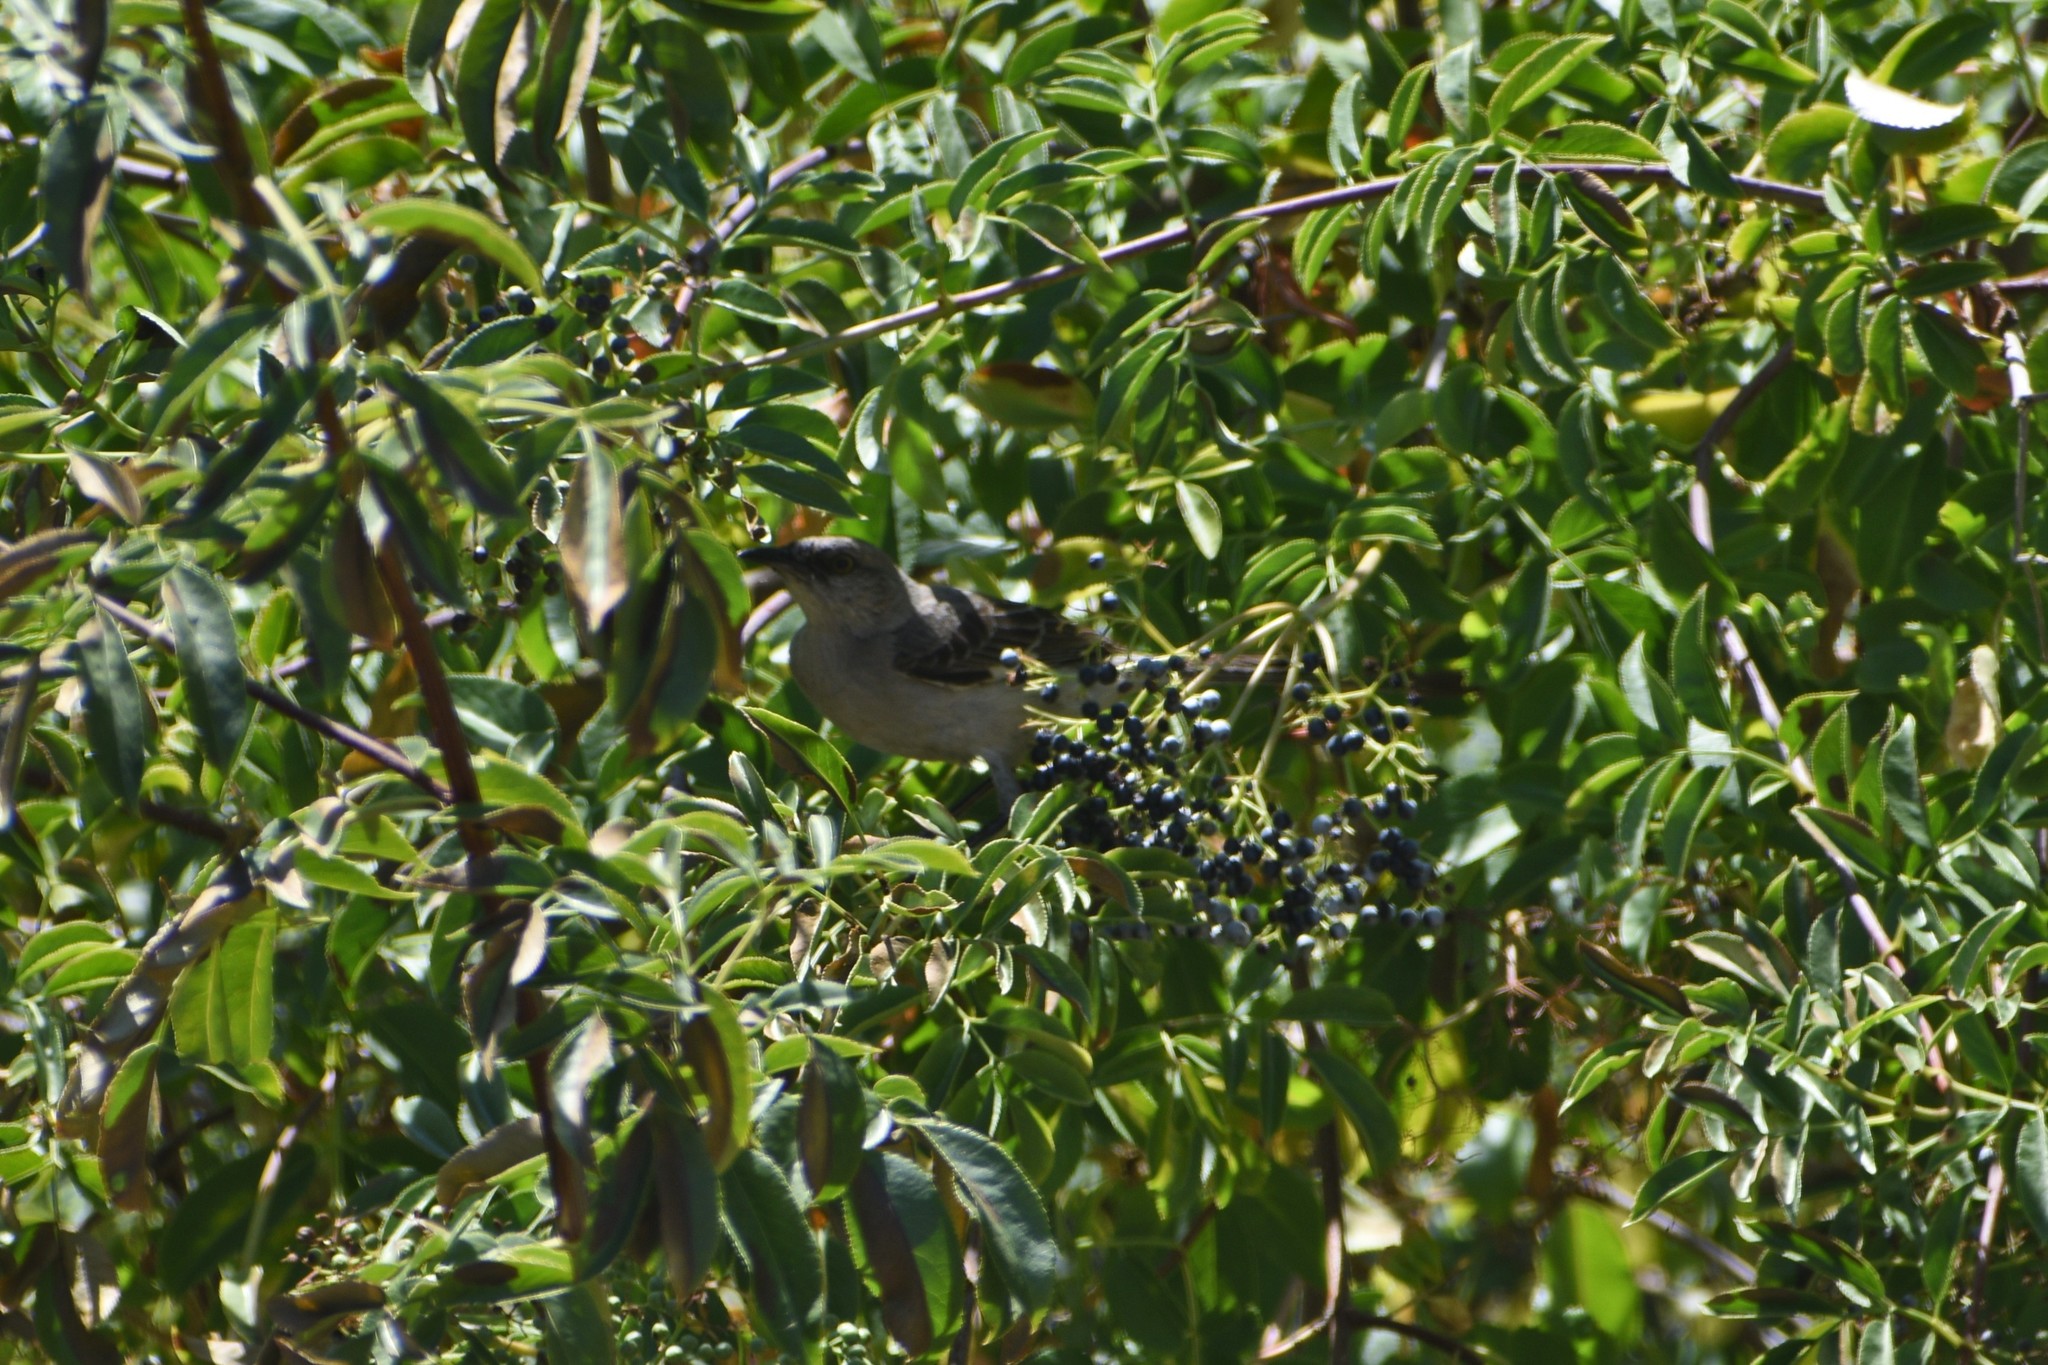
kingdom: Animalia
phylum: Chordata
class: Aves
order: Passeriformes
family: Mimidae
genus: Mimus
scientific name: Mimus polyglottos
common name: Northern mockingbird
